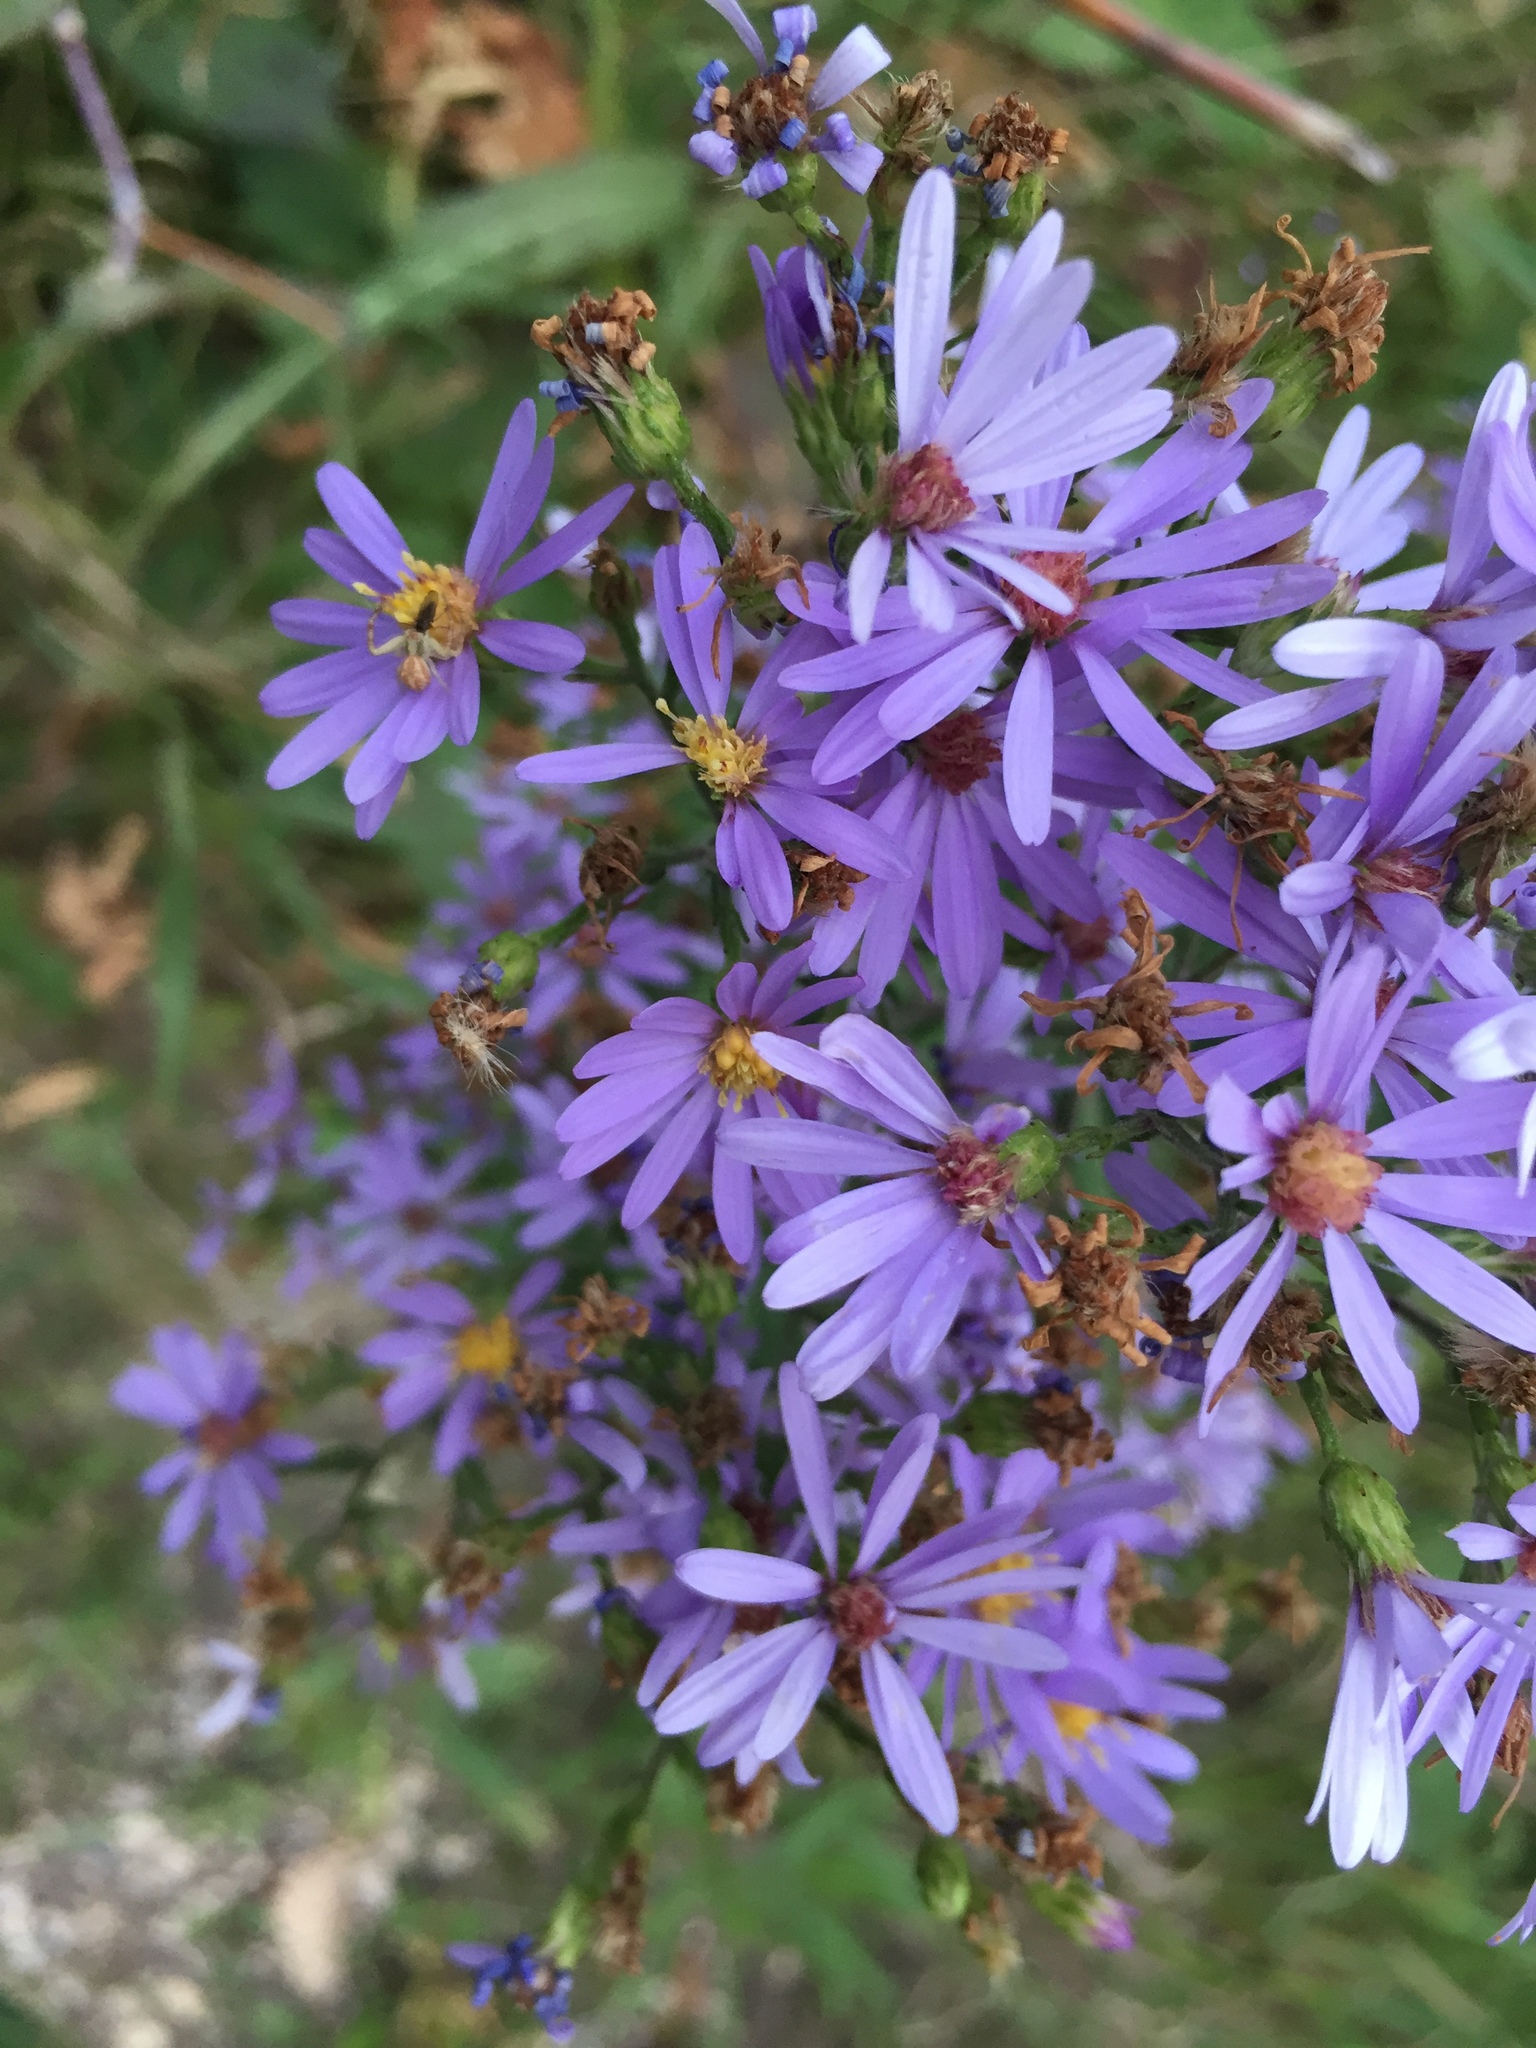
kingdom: Plantae
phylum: Tracheophyta
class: Magnoliopsida
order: Asterales
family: Asteraceae
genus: Symphyotrichum
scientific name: Symphyotrichum laeve
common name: Glaucous aster
